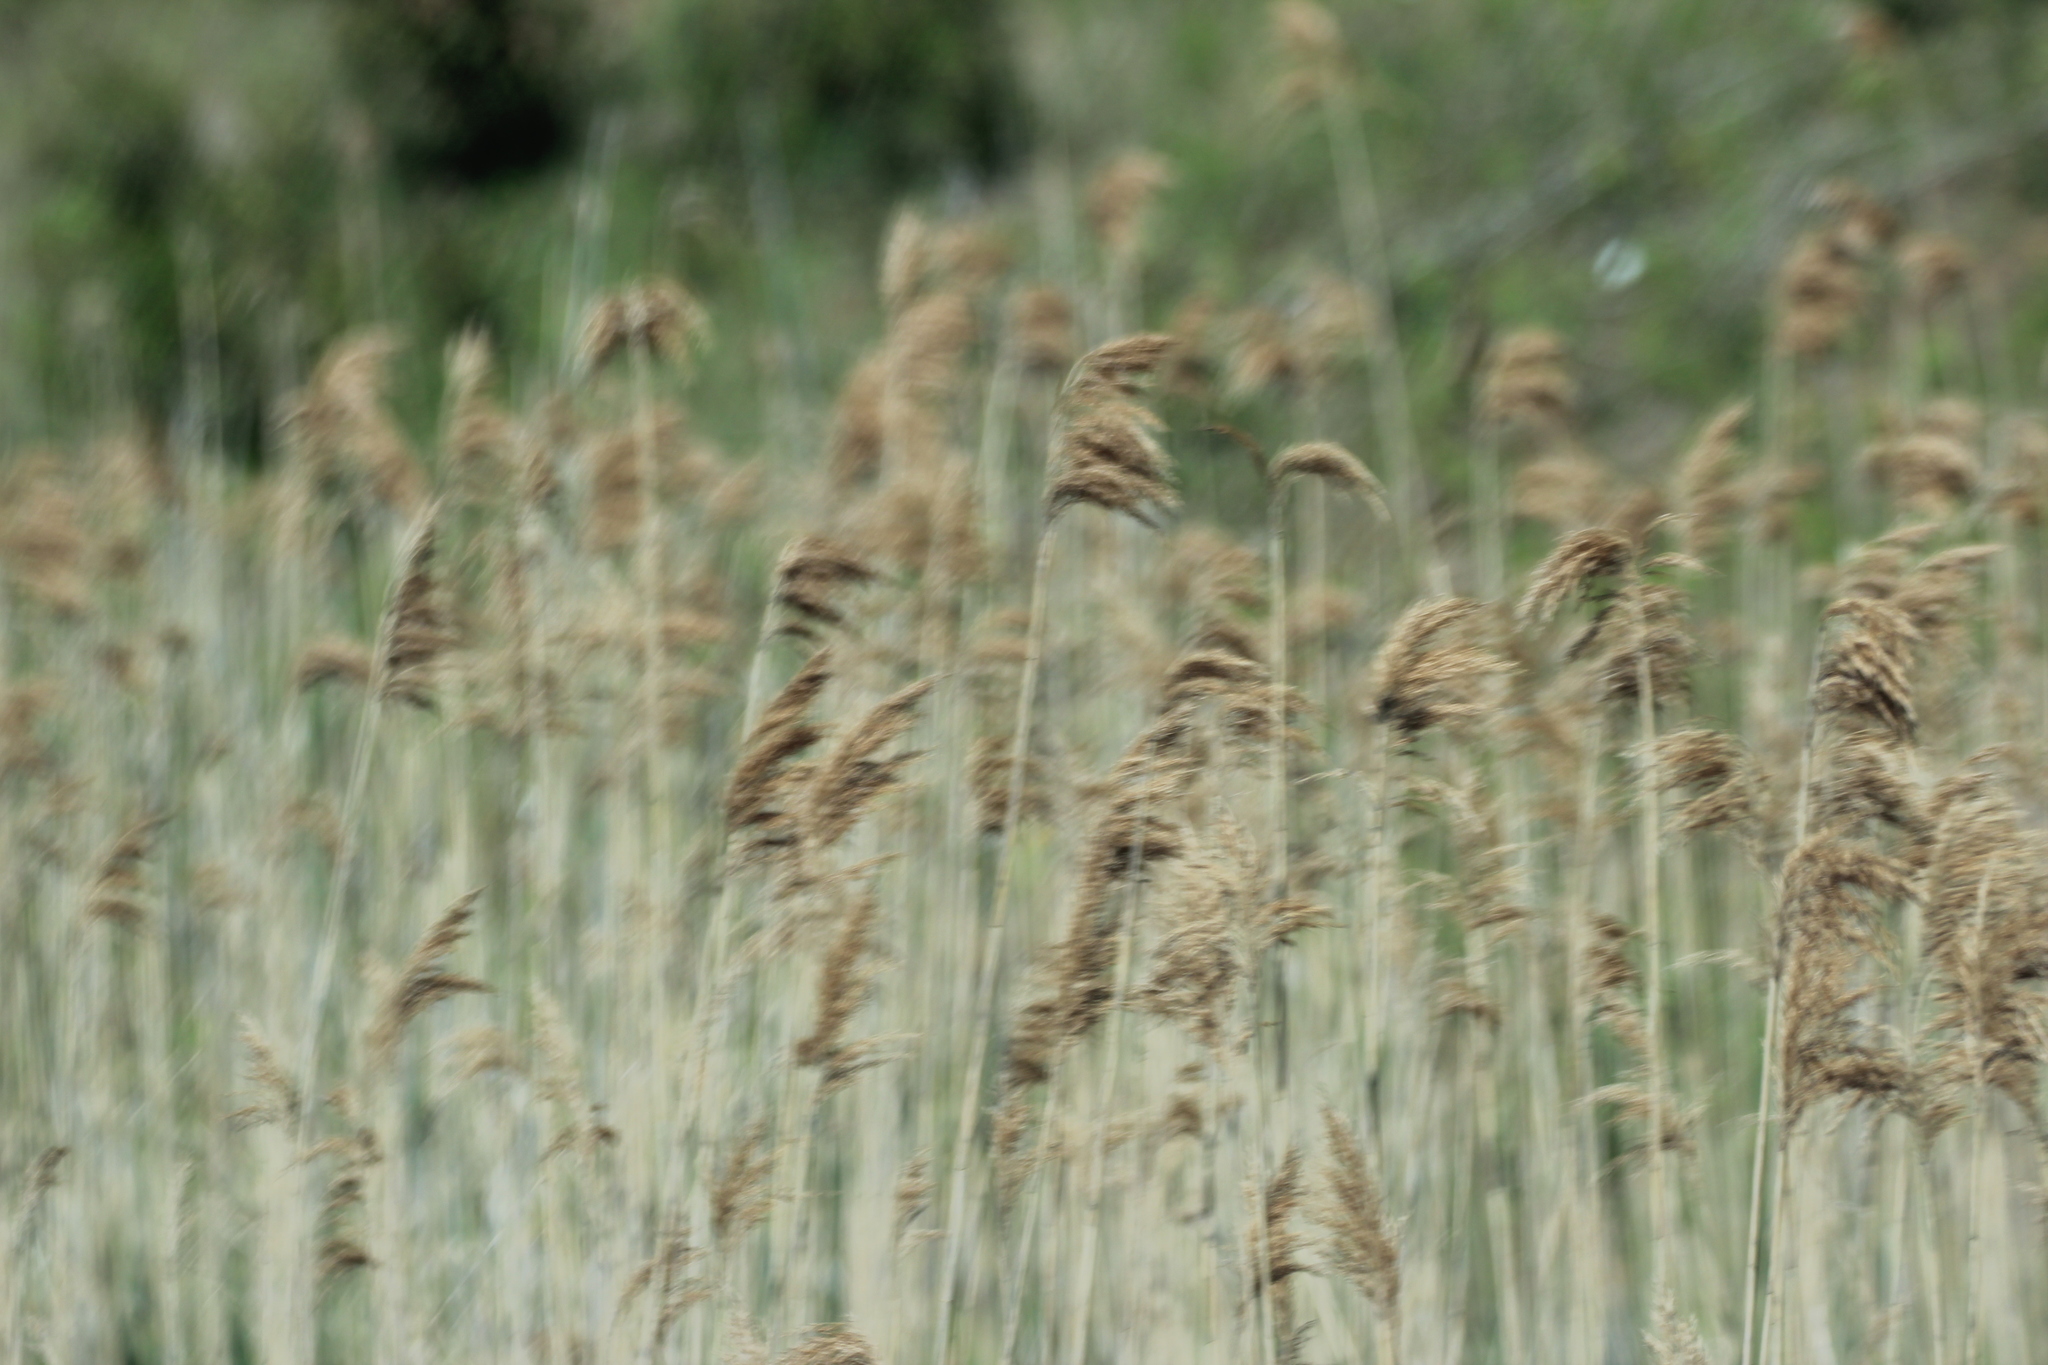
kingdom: Plantae
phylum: Tracheophyta
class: Liliopsida
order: Poales
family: Poaceae
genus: Phragmites
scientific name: Phragmites australis
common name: Common reed
